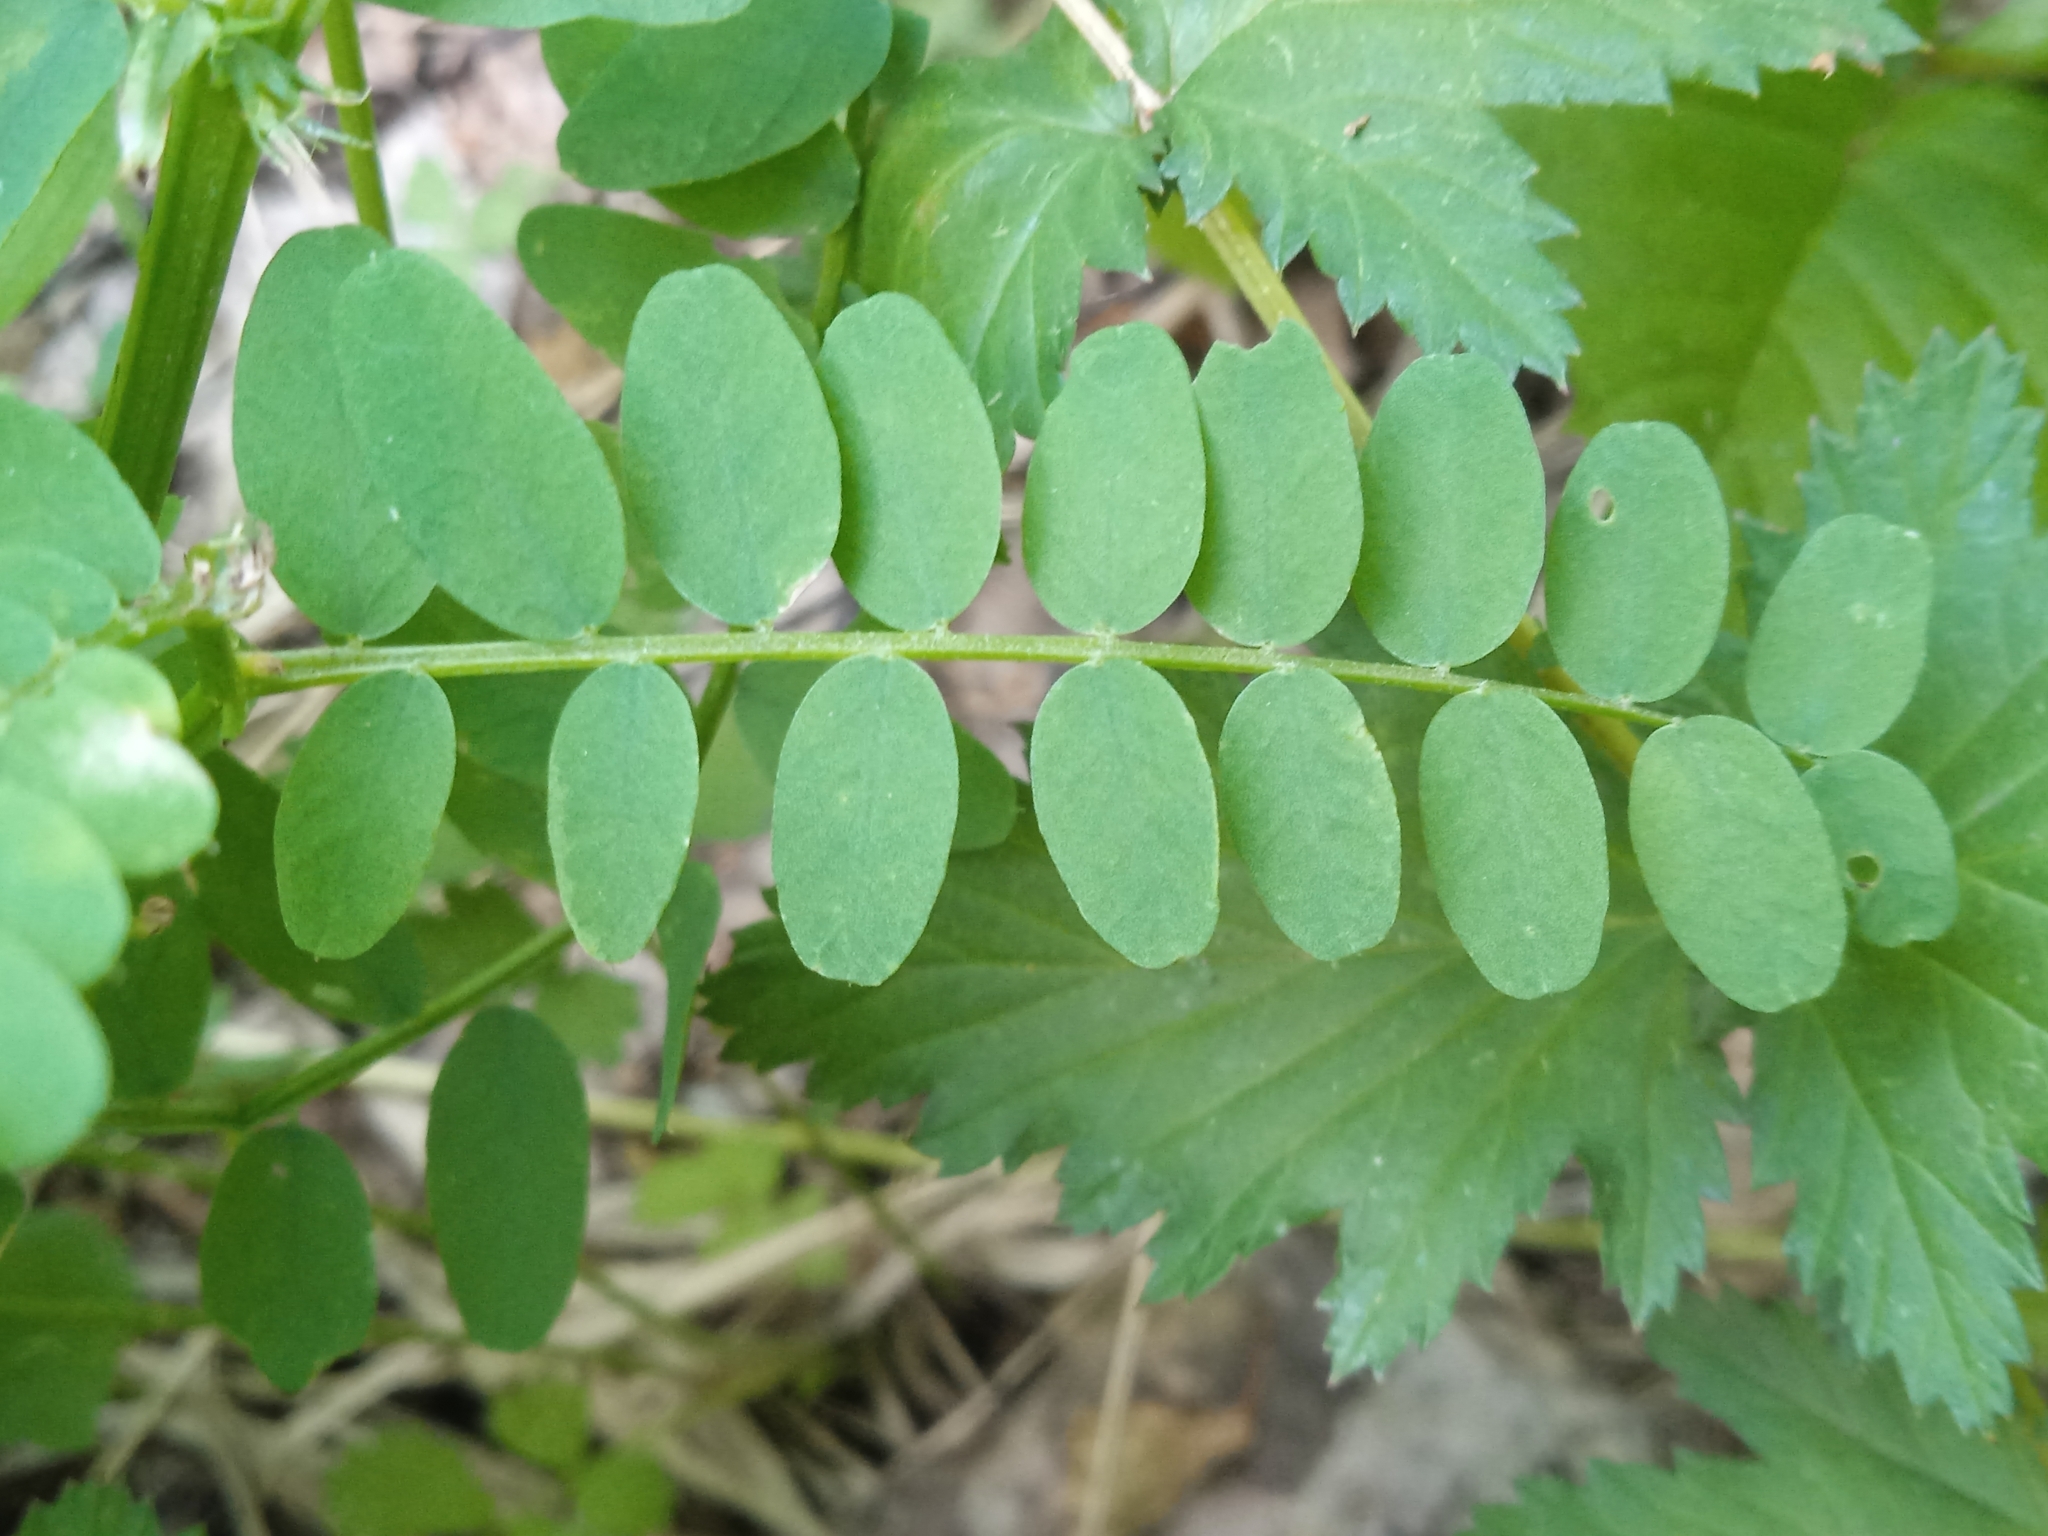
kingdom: Plantae
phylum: Tracheophyta
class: Magnoliopsida
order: Fabales
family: Fabaceae
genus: Vicia
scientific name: Vicia sylvatica
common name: Wood vetch
